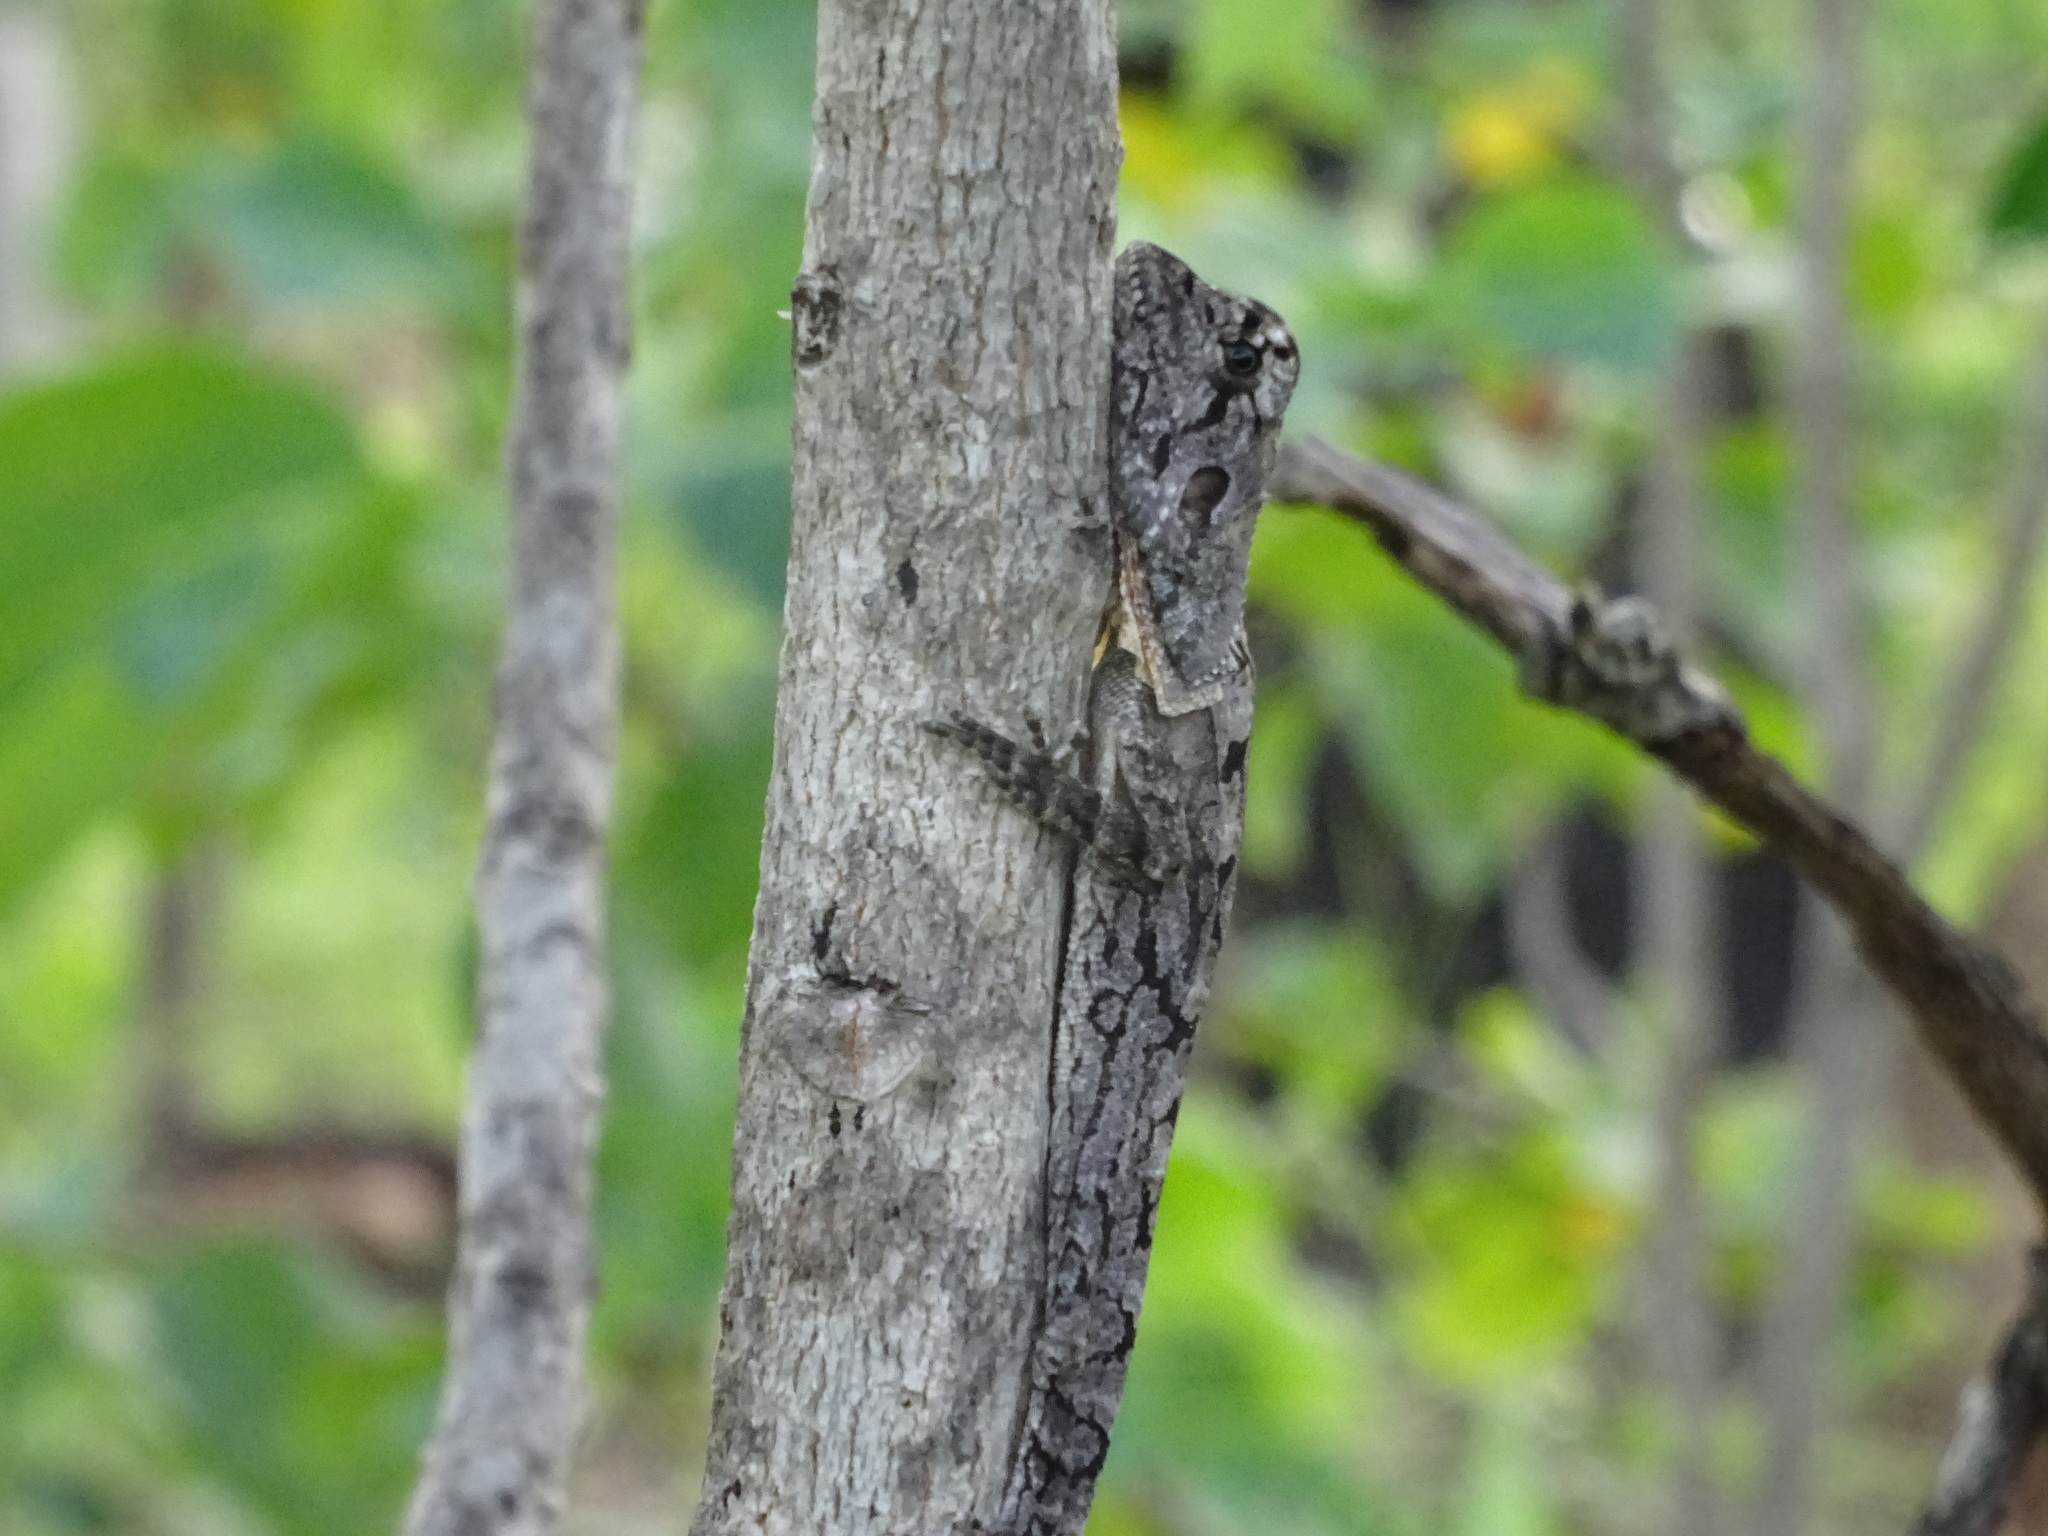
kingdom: Animalia
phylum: Chordata
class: Squamata
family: Agamidae
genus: Chlamydosaurus
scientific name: Chlamydosaurus kingii
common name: Frilled lizard
